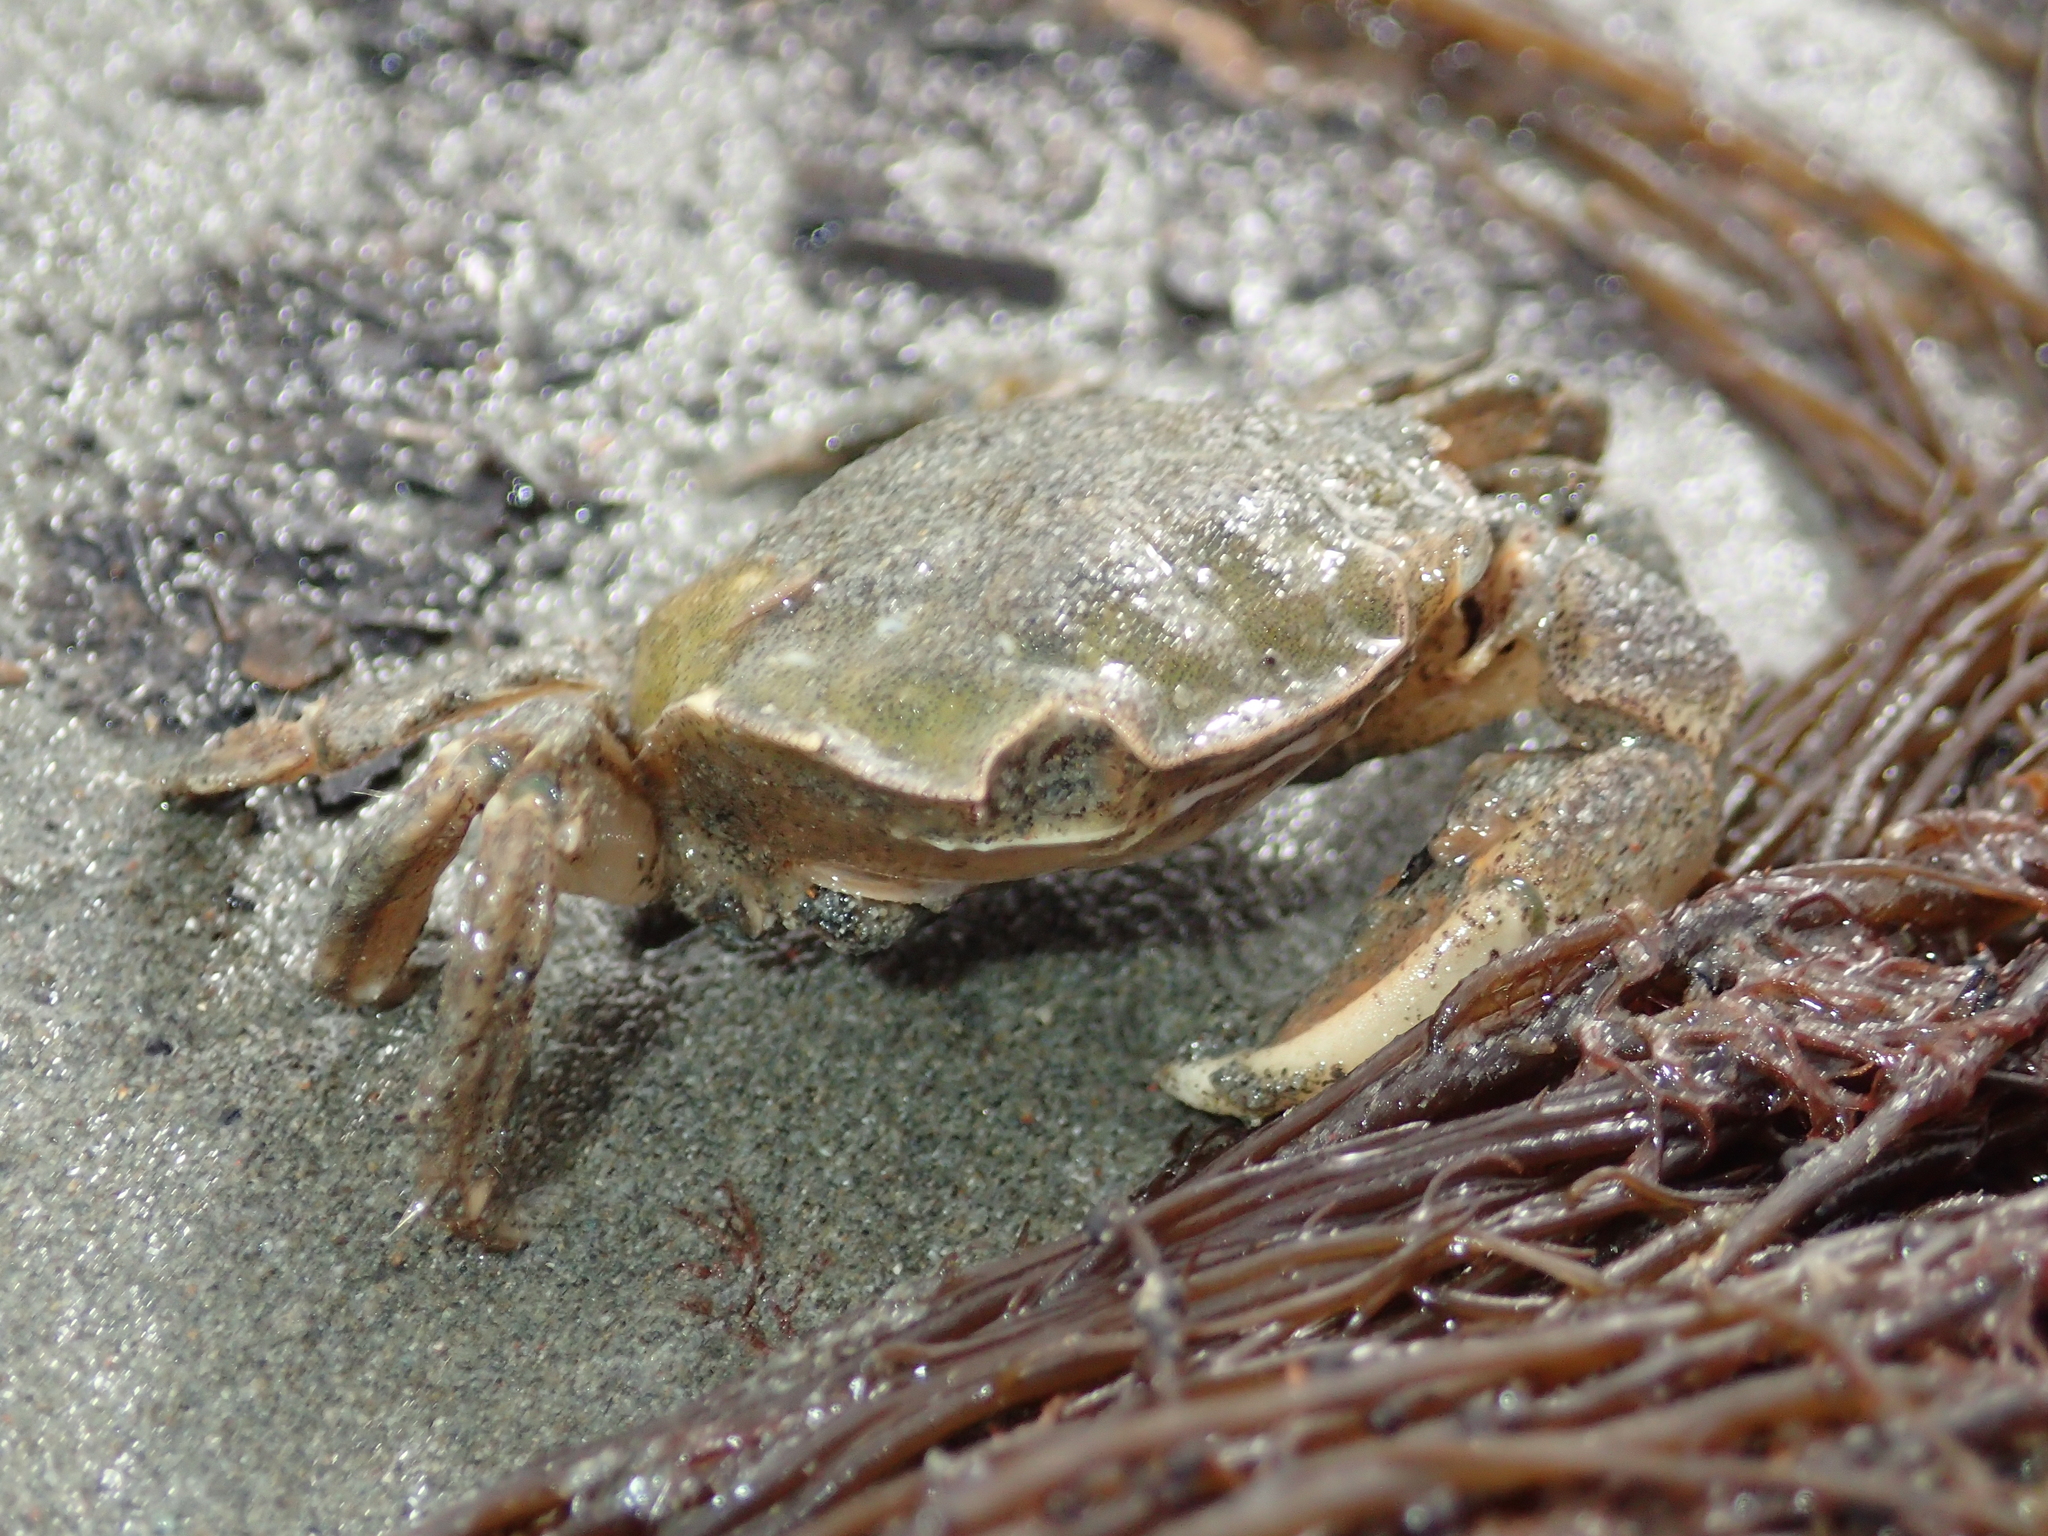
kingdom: Animalia
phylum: Arthropoda
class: Malacostraca
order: Decapoda
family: Varunidae
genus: Hemigrapsus
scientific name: Hemigrapsus crenulatus
